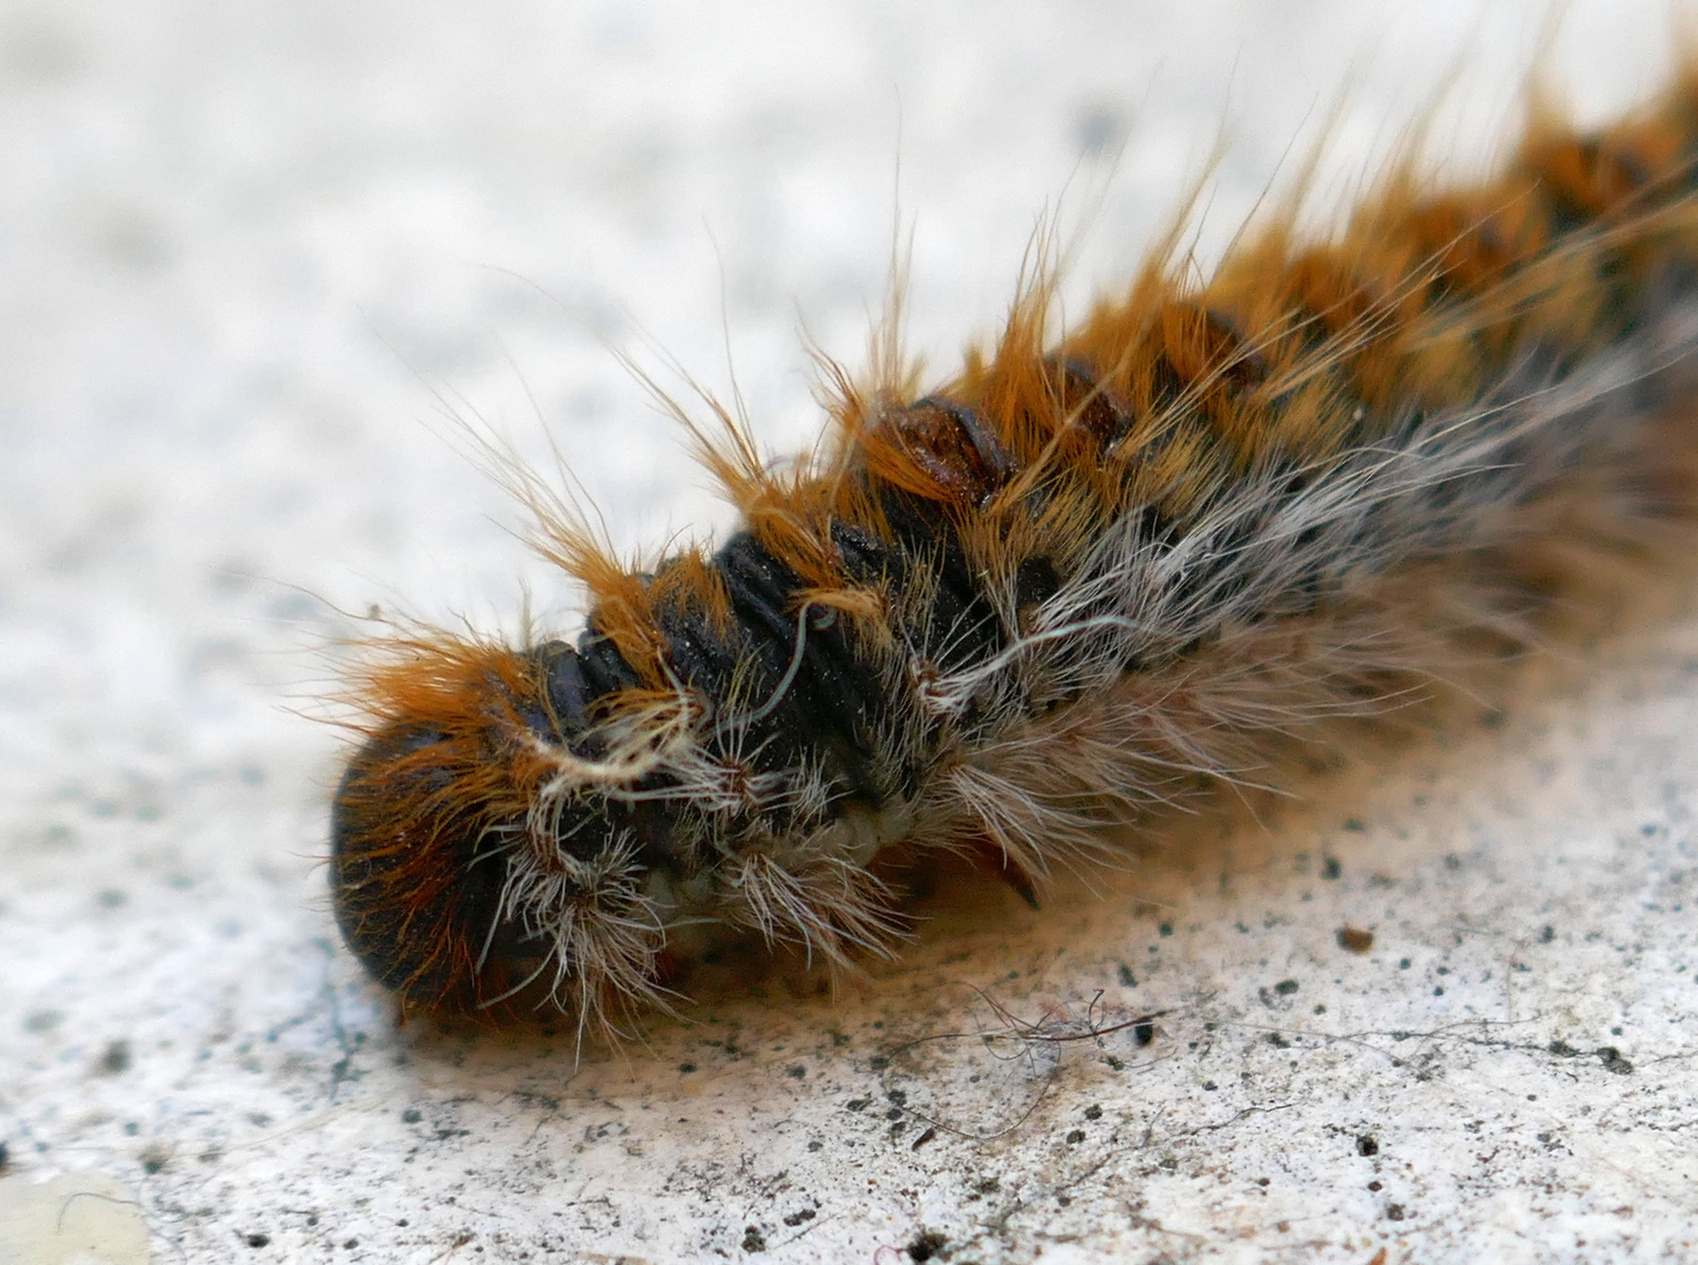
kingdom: Animalia
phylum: Arthropoda
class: Insecta
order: Lepidoptera
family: Notodontidae
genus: Thaumetopoea
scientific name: Thaumetopoea pityocampa
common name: Pine processionary
